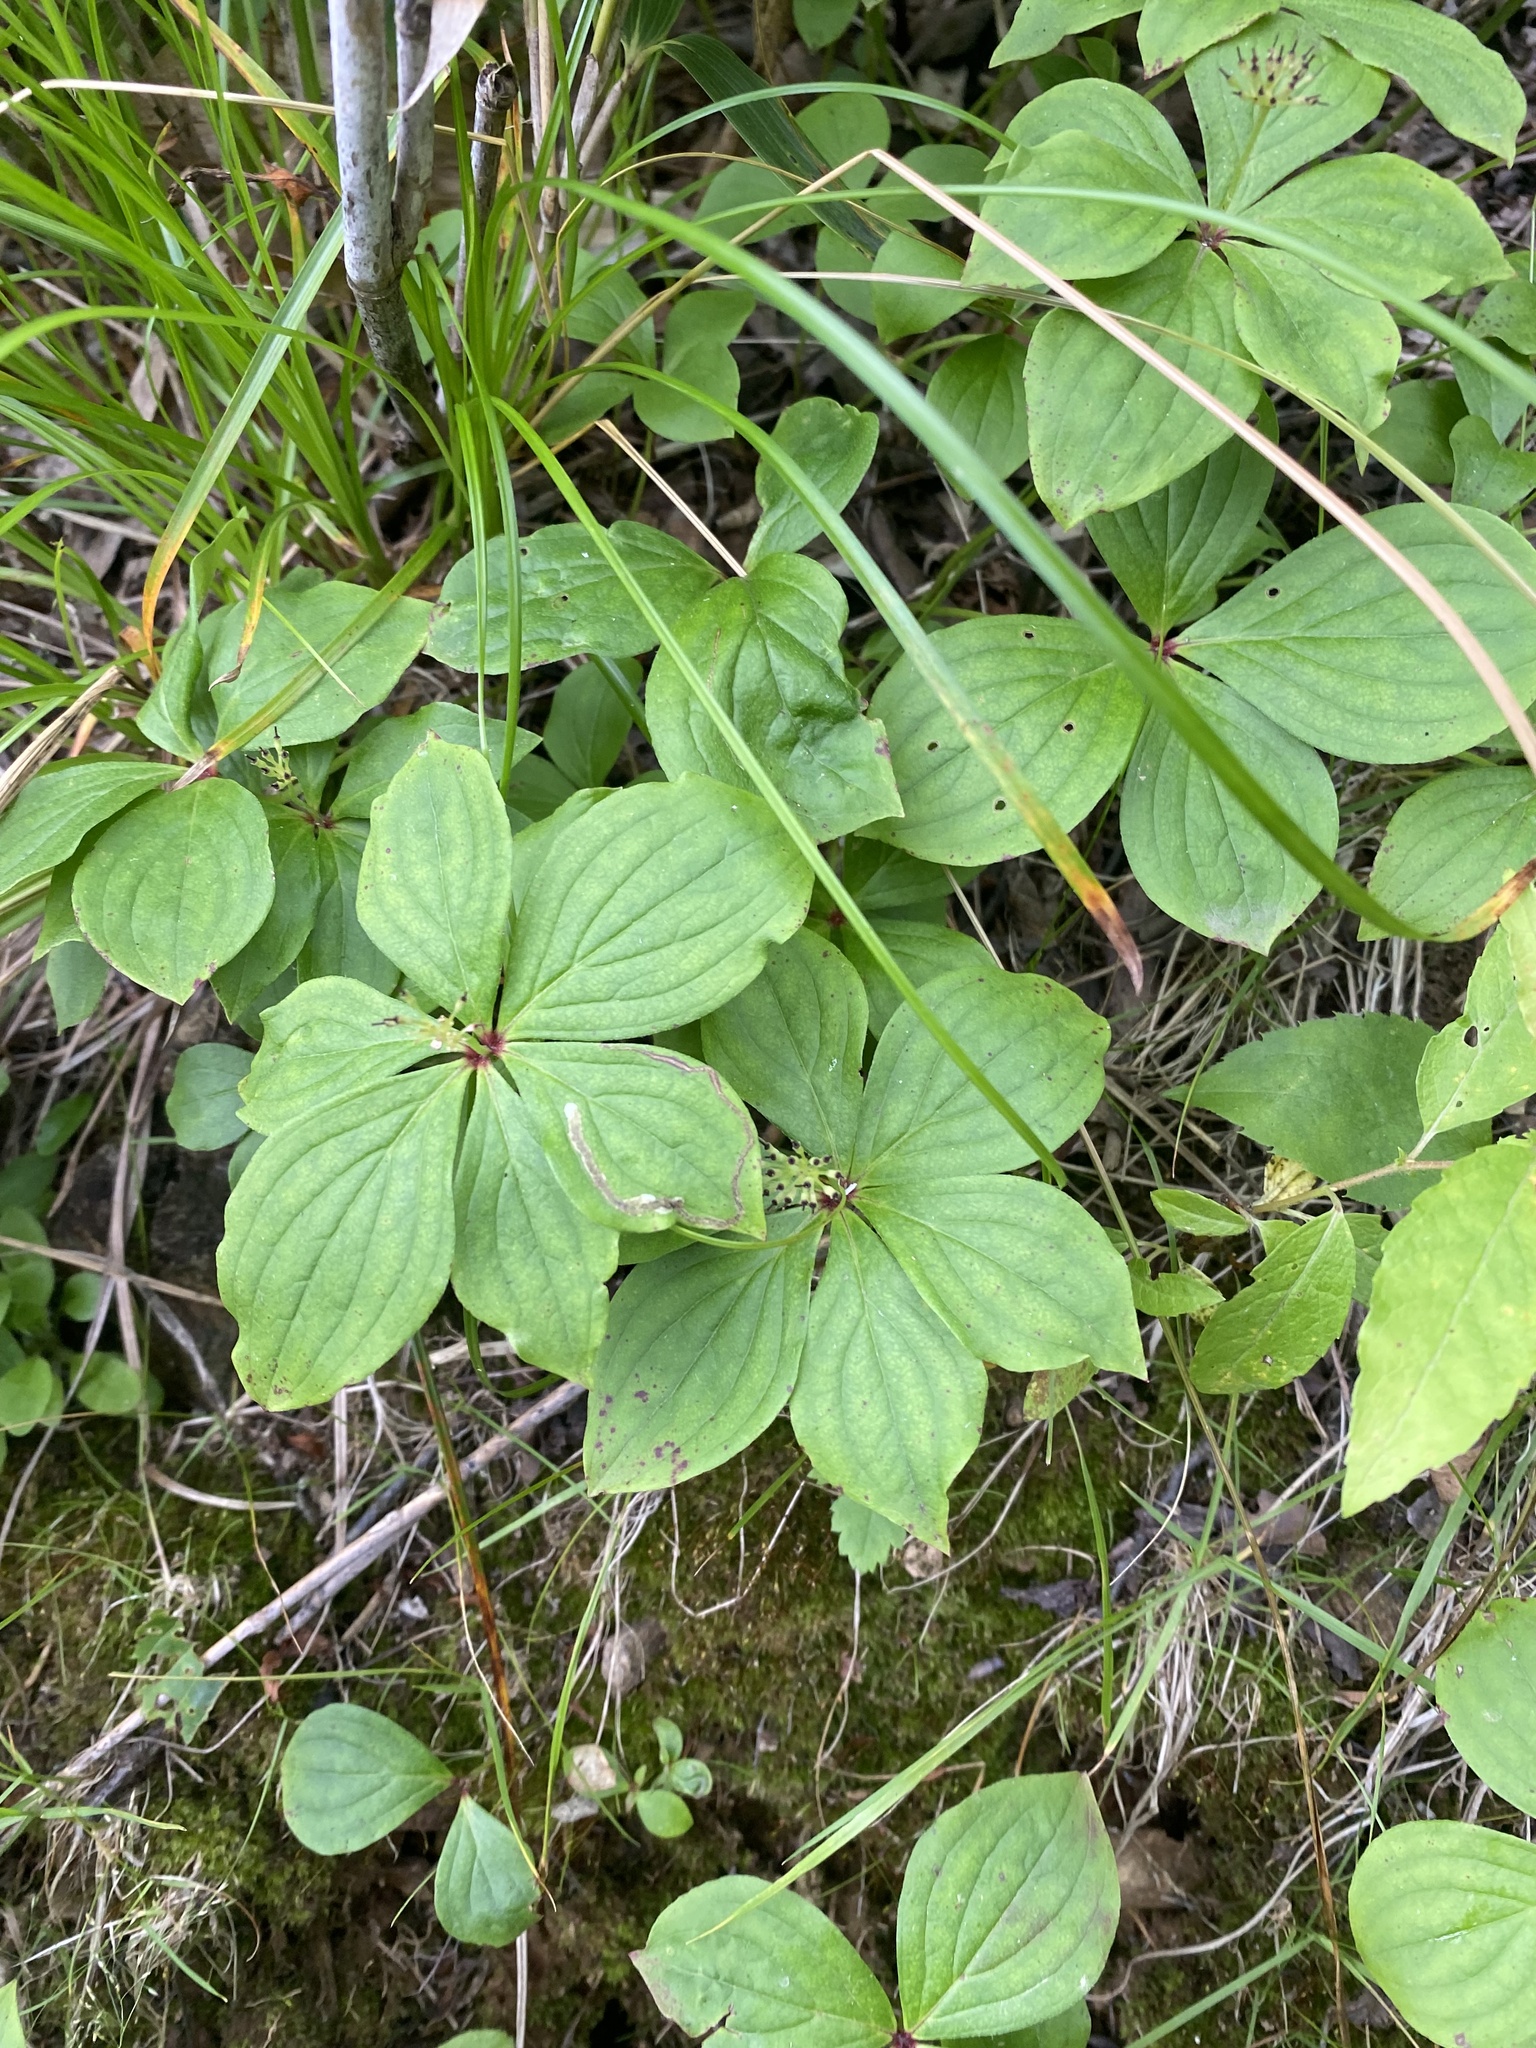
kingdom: Plantae
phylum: Tracheophyta
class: Magnoliopsida
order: Cornales
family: Cornaceae
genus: Cornus
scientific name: Cornus canadensis
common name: Creeping dogwood
